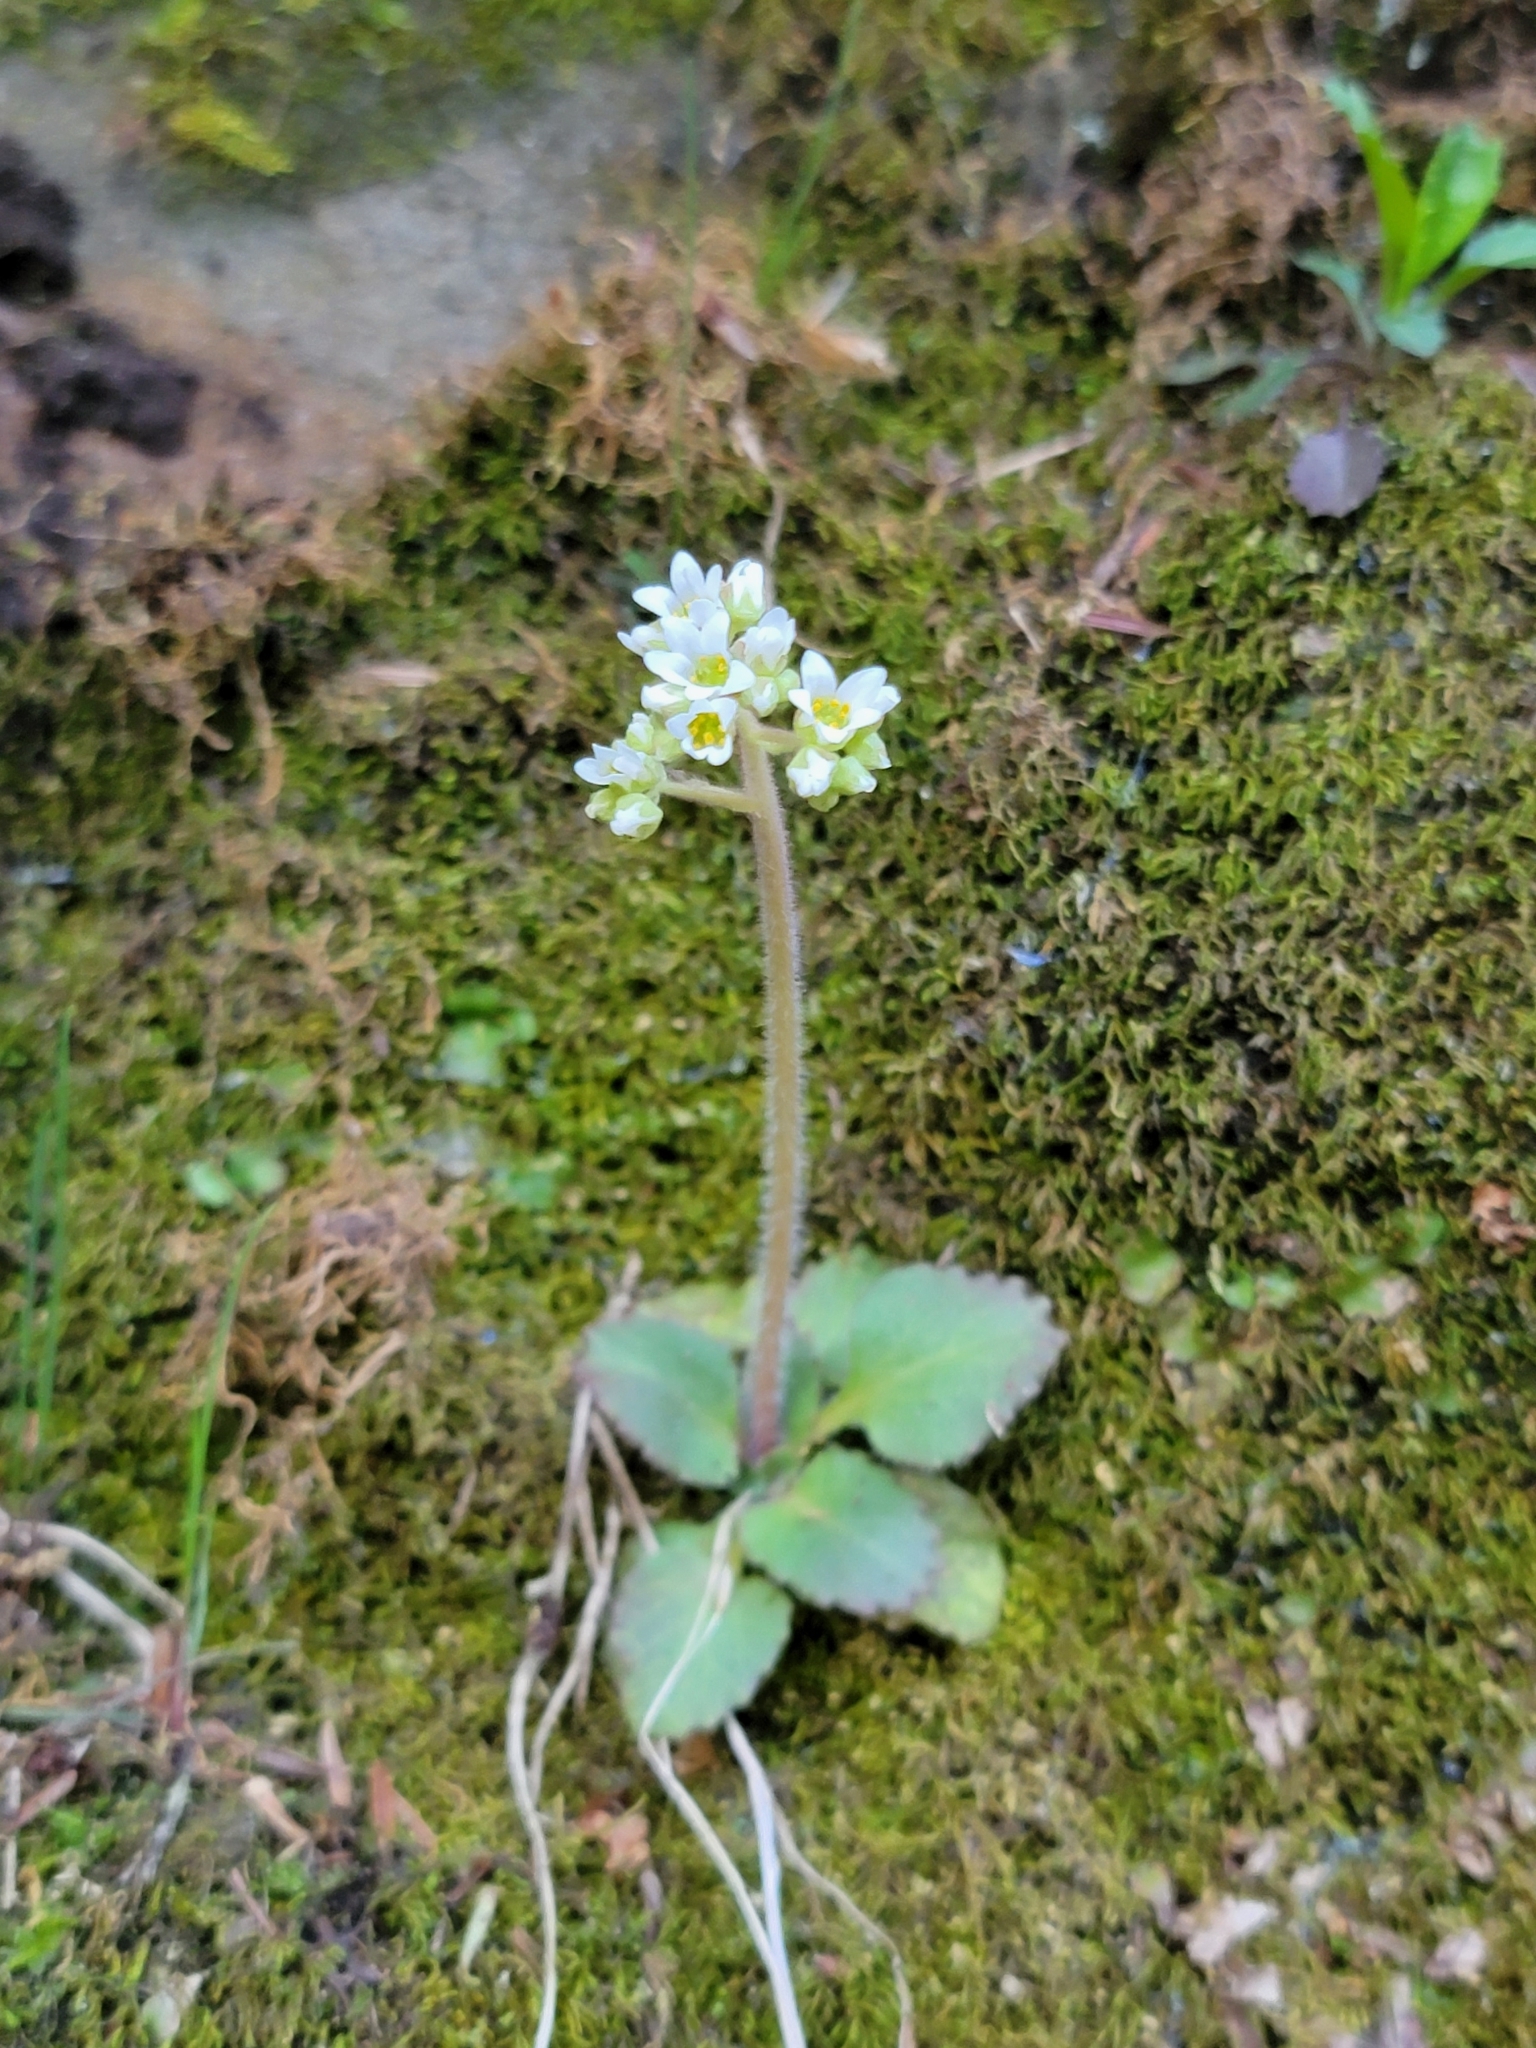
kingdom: Plantae
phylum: Tracheophyta
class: Magnoliopsida
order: Saxifragales
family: Saxifragaceae
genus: Micranthes
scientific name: Micranthes virginiensis
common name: Early saxifrage
